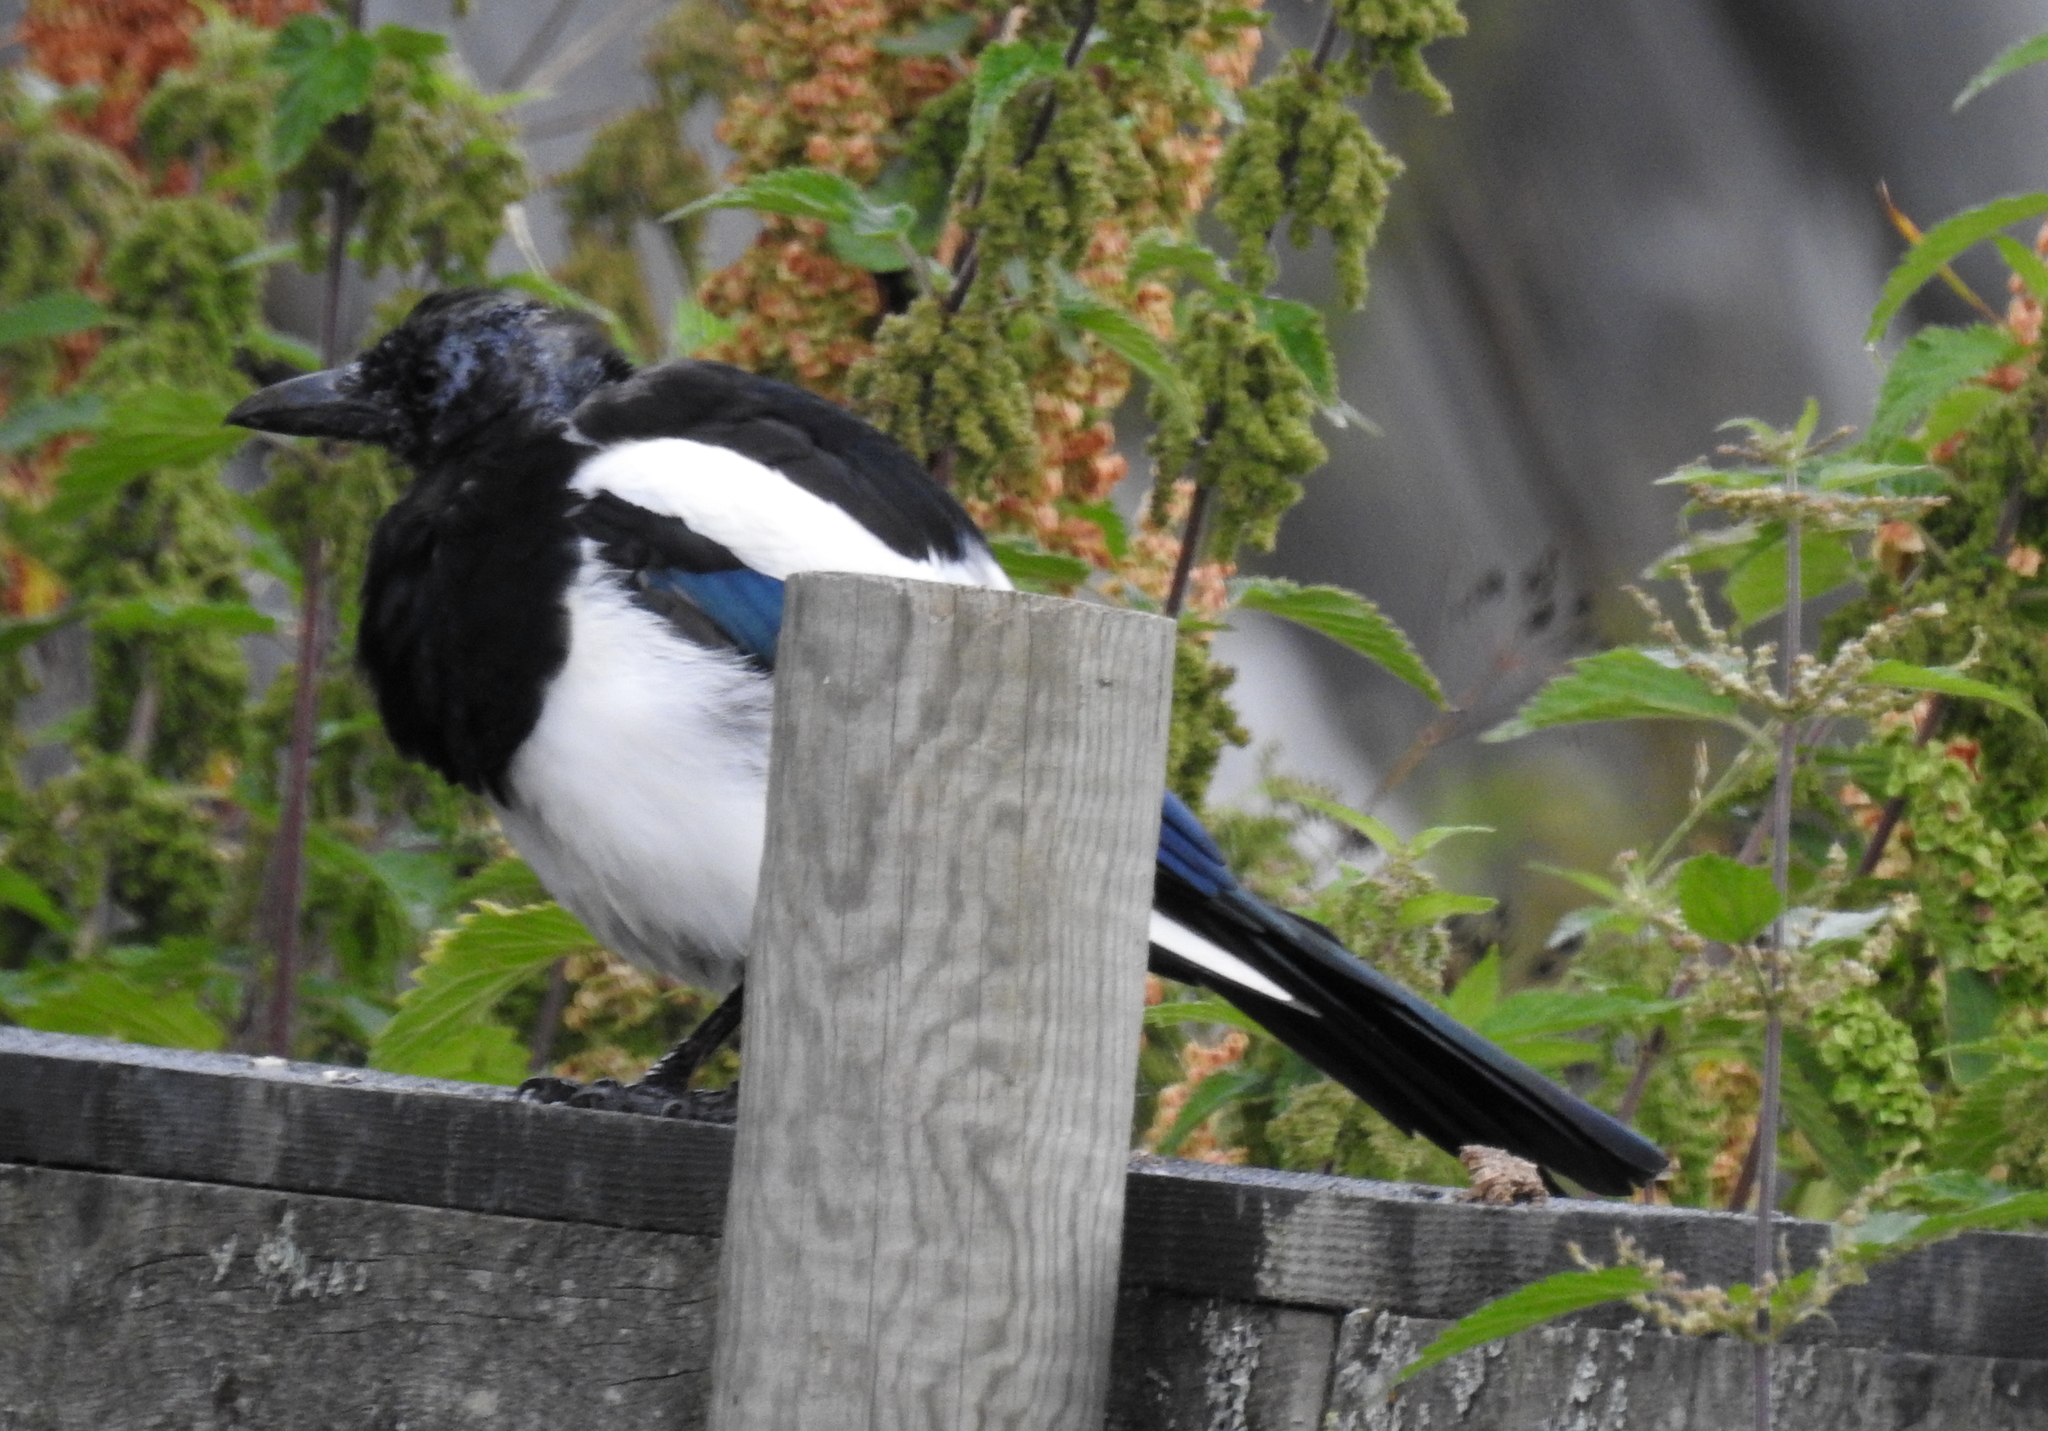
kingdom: Animalia
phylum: Chordata
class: Aves
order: Passeriformes
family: Corvidae
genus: Pica
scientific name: Pica pica
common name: Eurasian magpie
